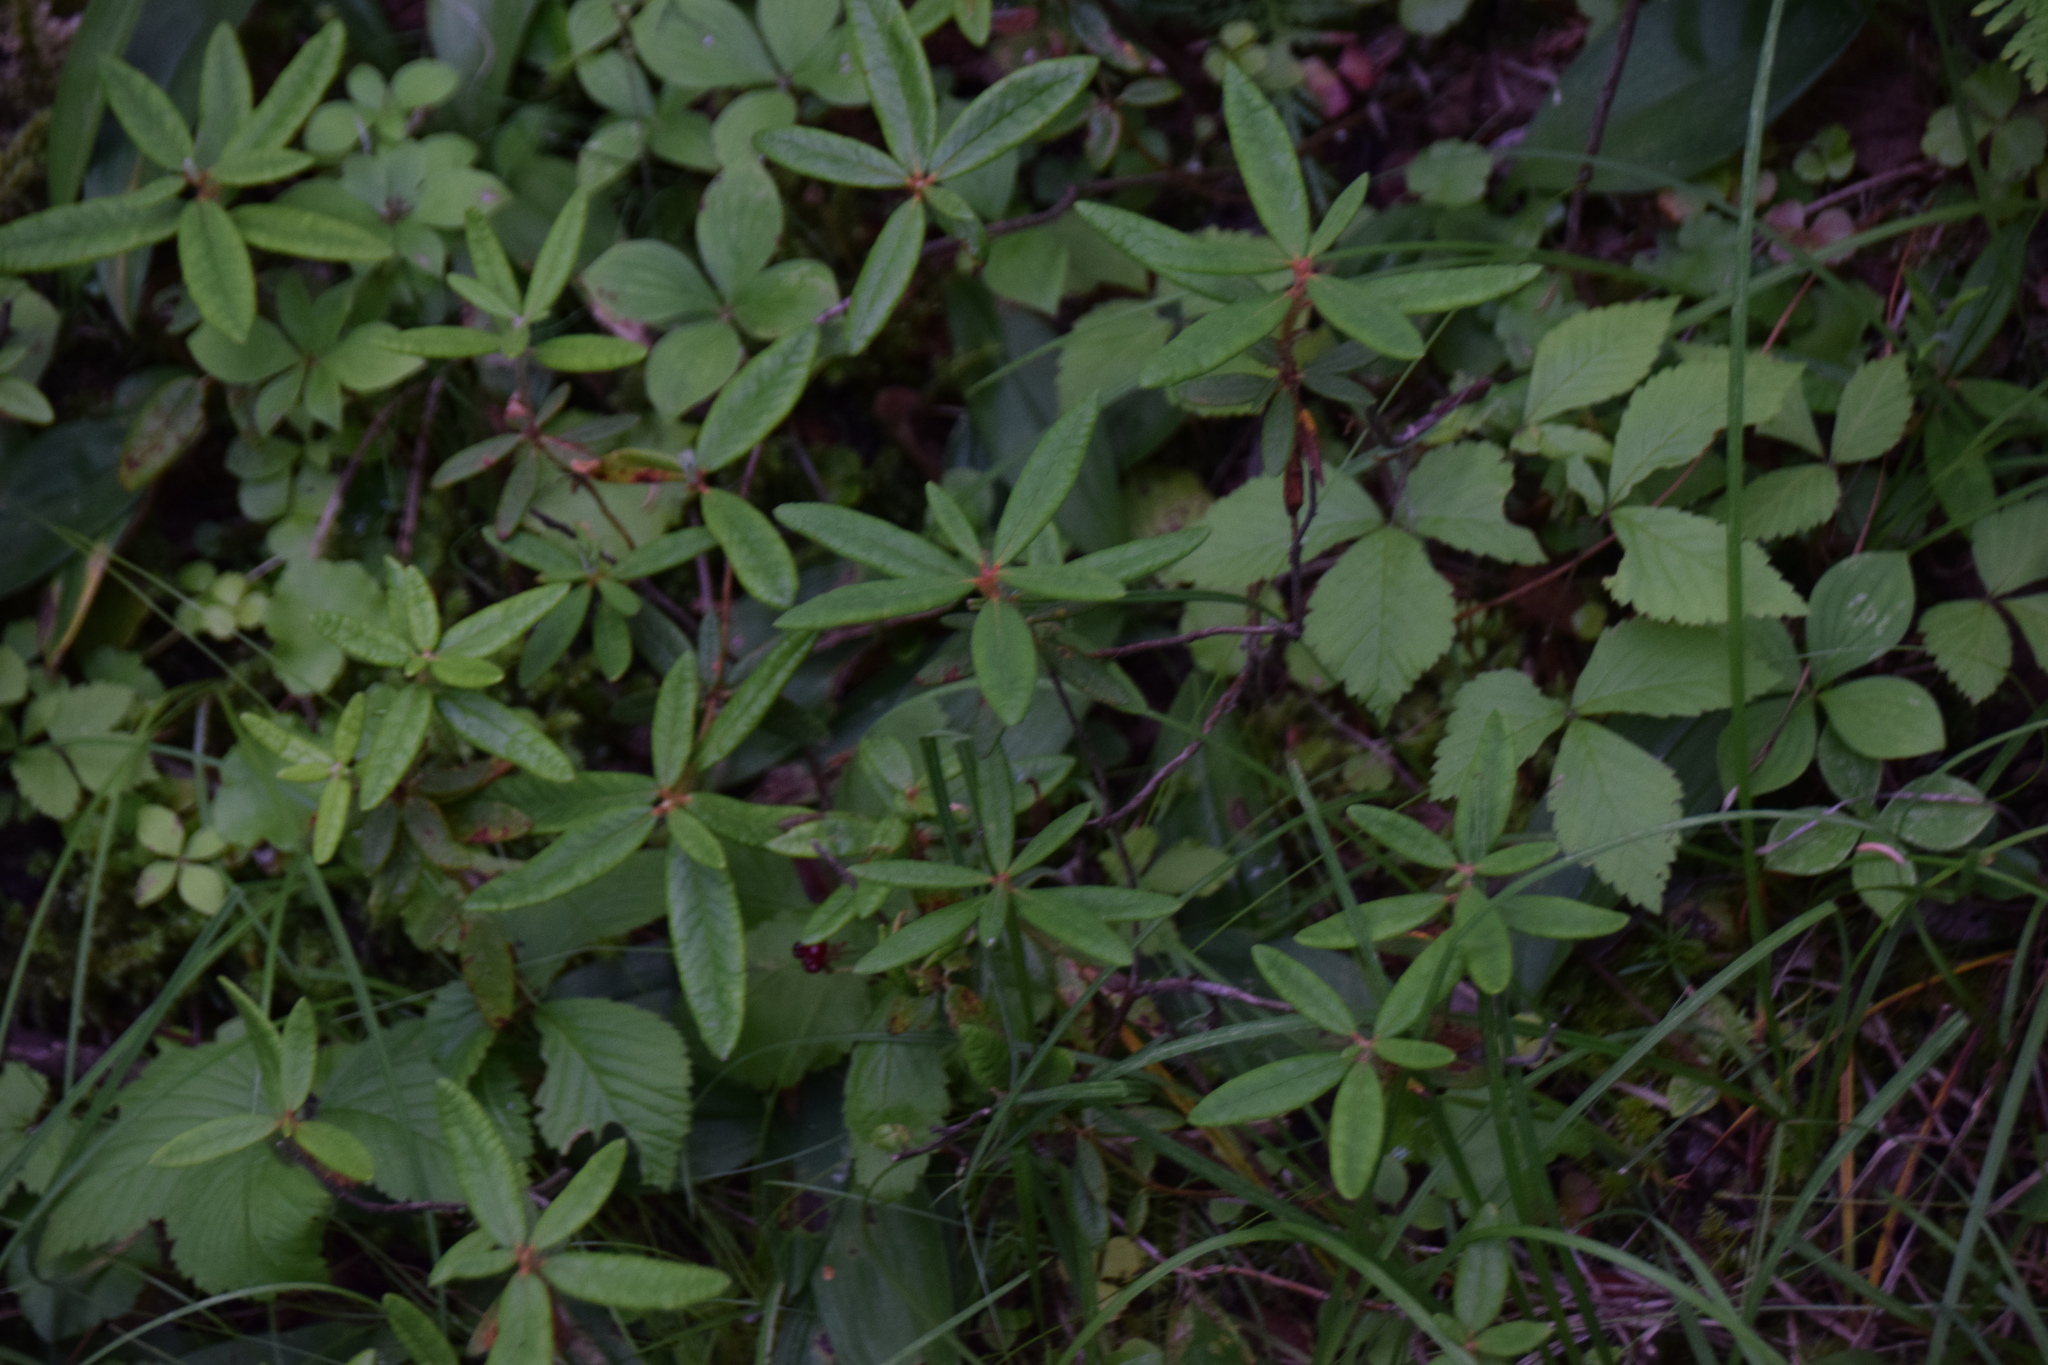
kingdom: Plantae
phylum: Tracheophyta
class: Magnoliopsida
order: Ericales
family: Ericaceae
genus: Rhododendron
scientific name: Rhododendron groenlandicum
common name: Bog labrador tea
